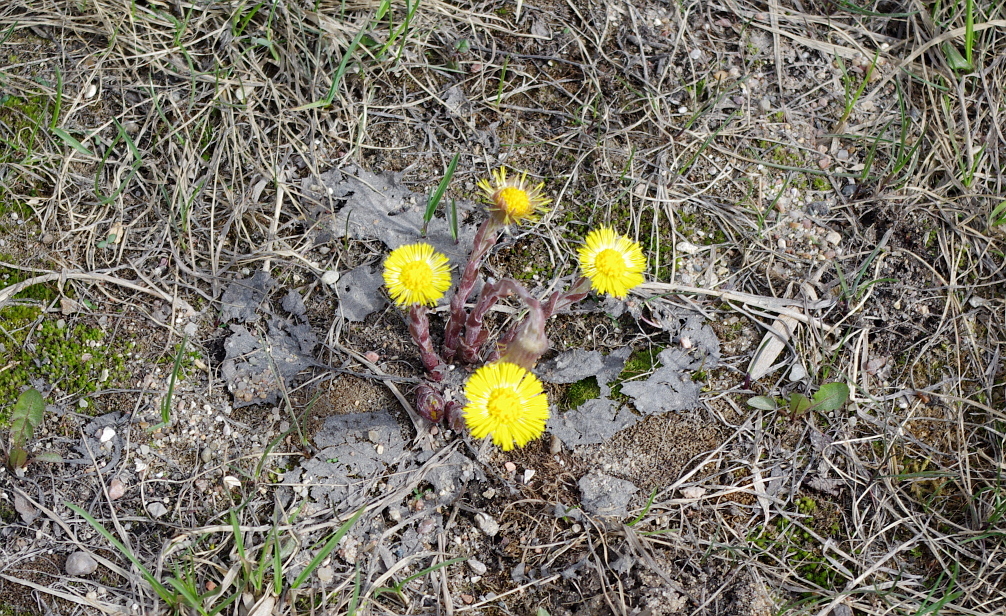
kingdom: Plantae
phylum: Tracheophyta
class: Magnoliopsida
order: Asterales
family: Asteraceae
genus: Tussilago
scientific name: Tussilago farfara
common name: Coltsfoot
